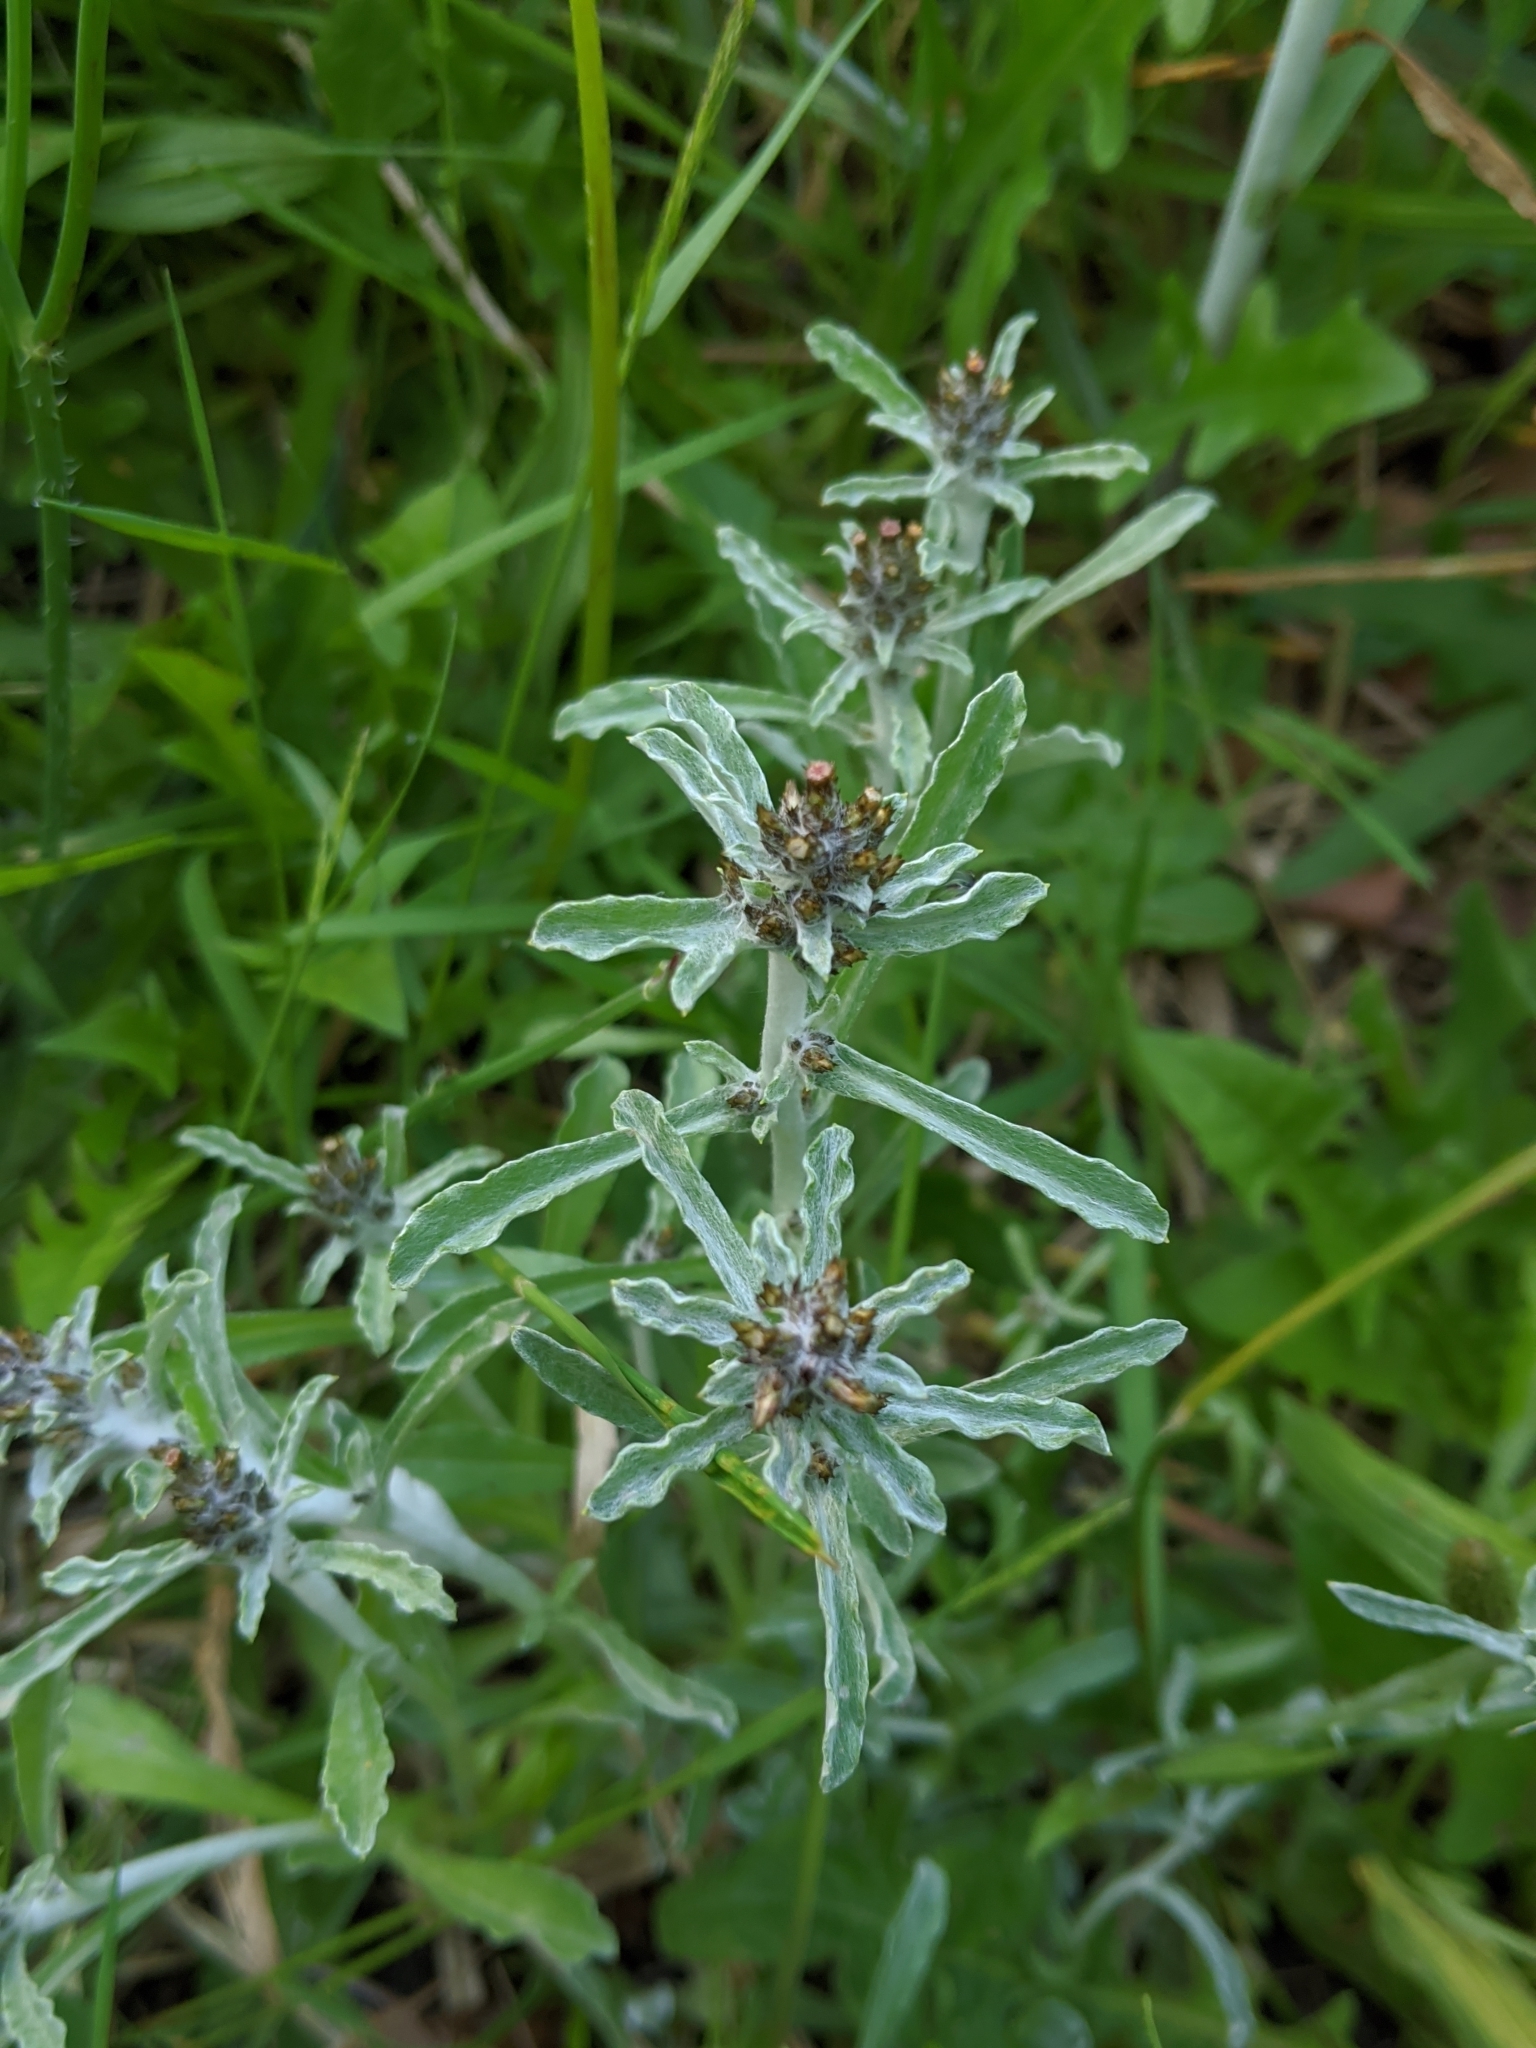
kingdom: Plantae
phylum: Tracheophyta
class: Magnoliopsida
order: Asterales
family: Asteraceae
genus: Gnaphalium
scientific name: Gnaphalium uliginosum
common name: Marsh cudweed
